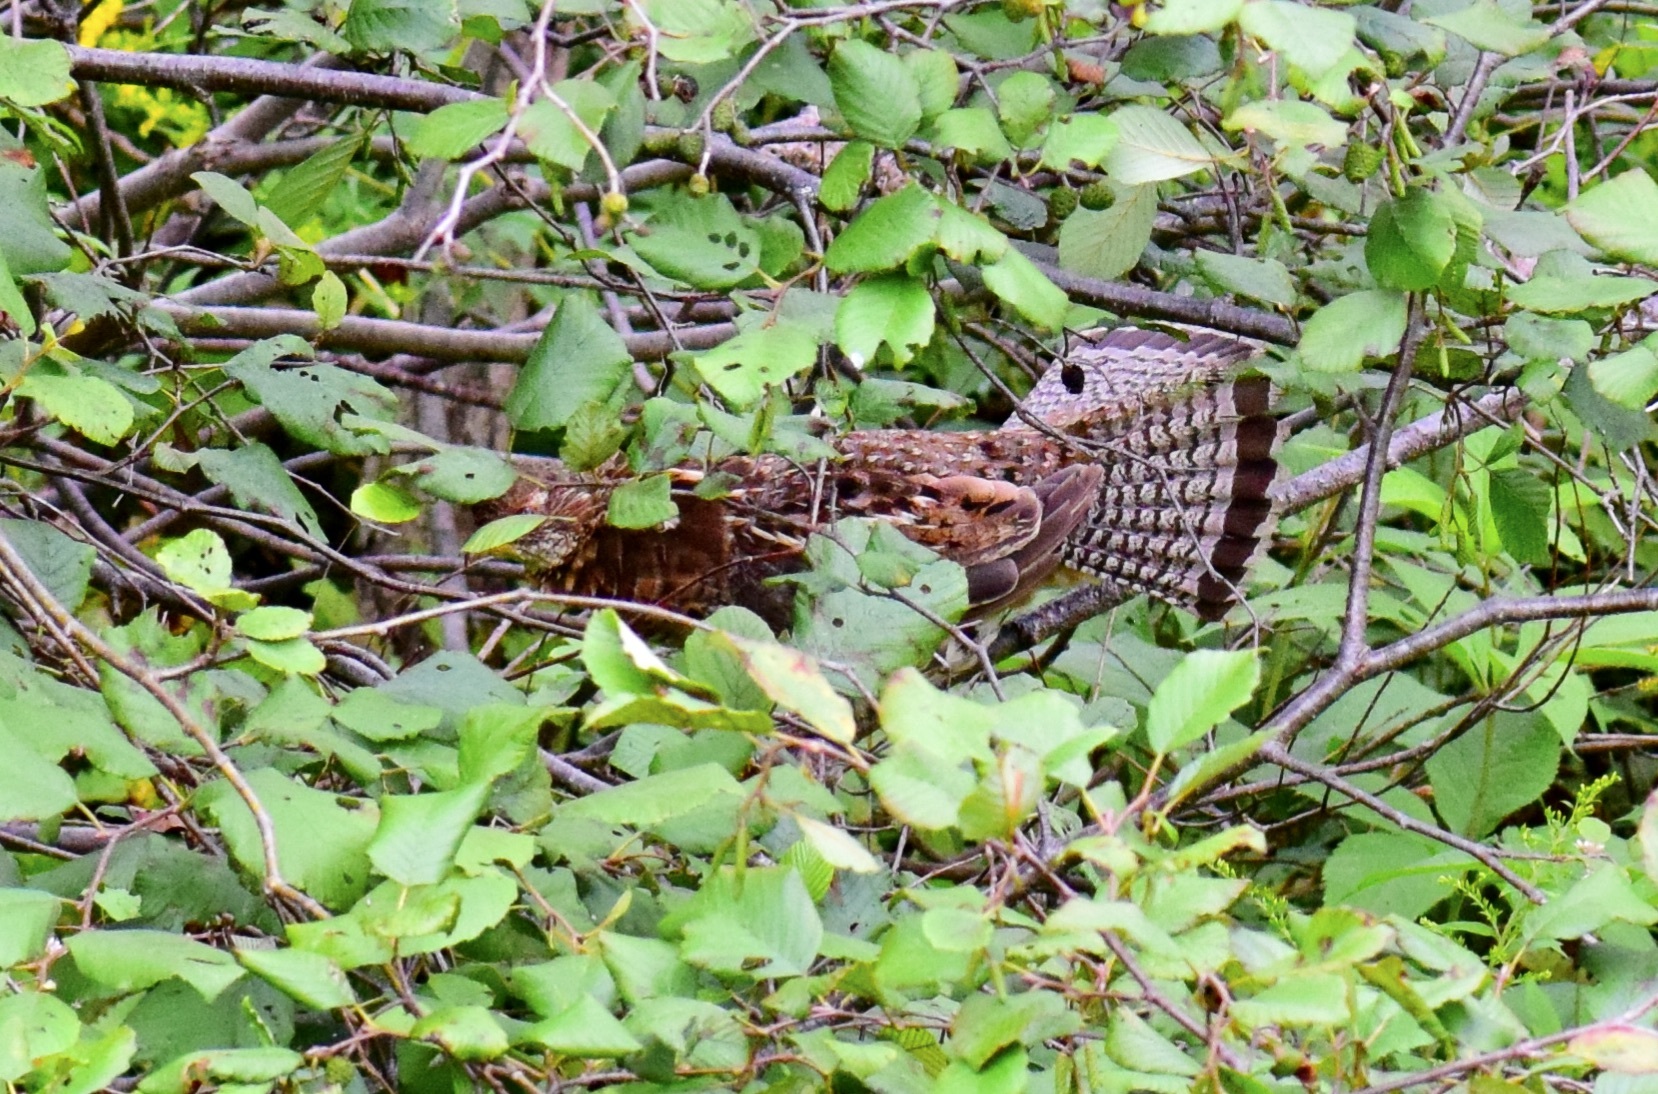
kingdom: Animalia
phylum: Chordata
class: Aves
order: Galliformes
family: Phasianidae
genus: Bonasa
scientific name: Bonasa umbellus
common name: Ruffed grouse
